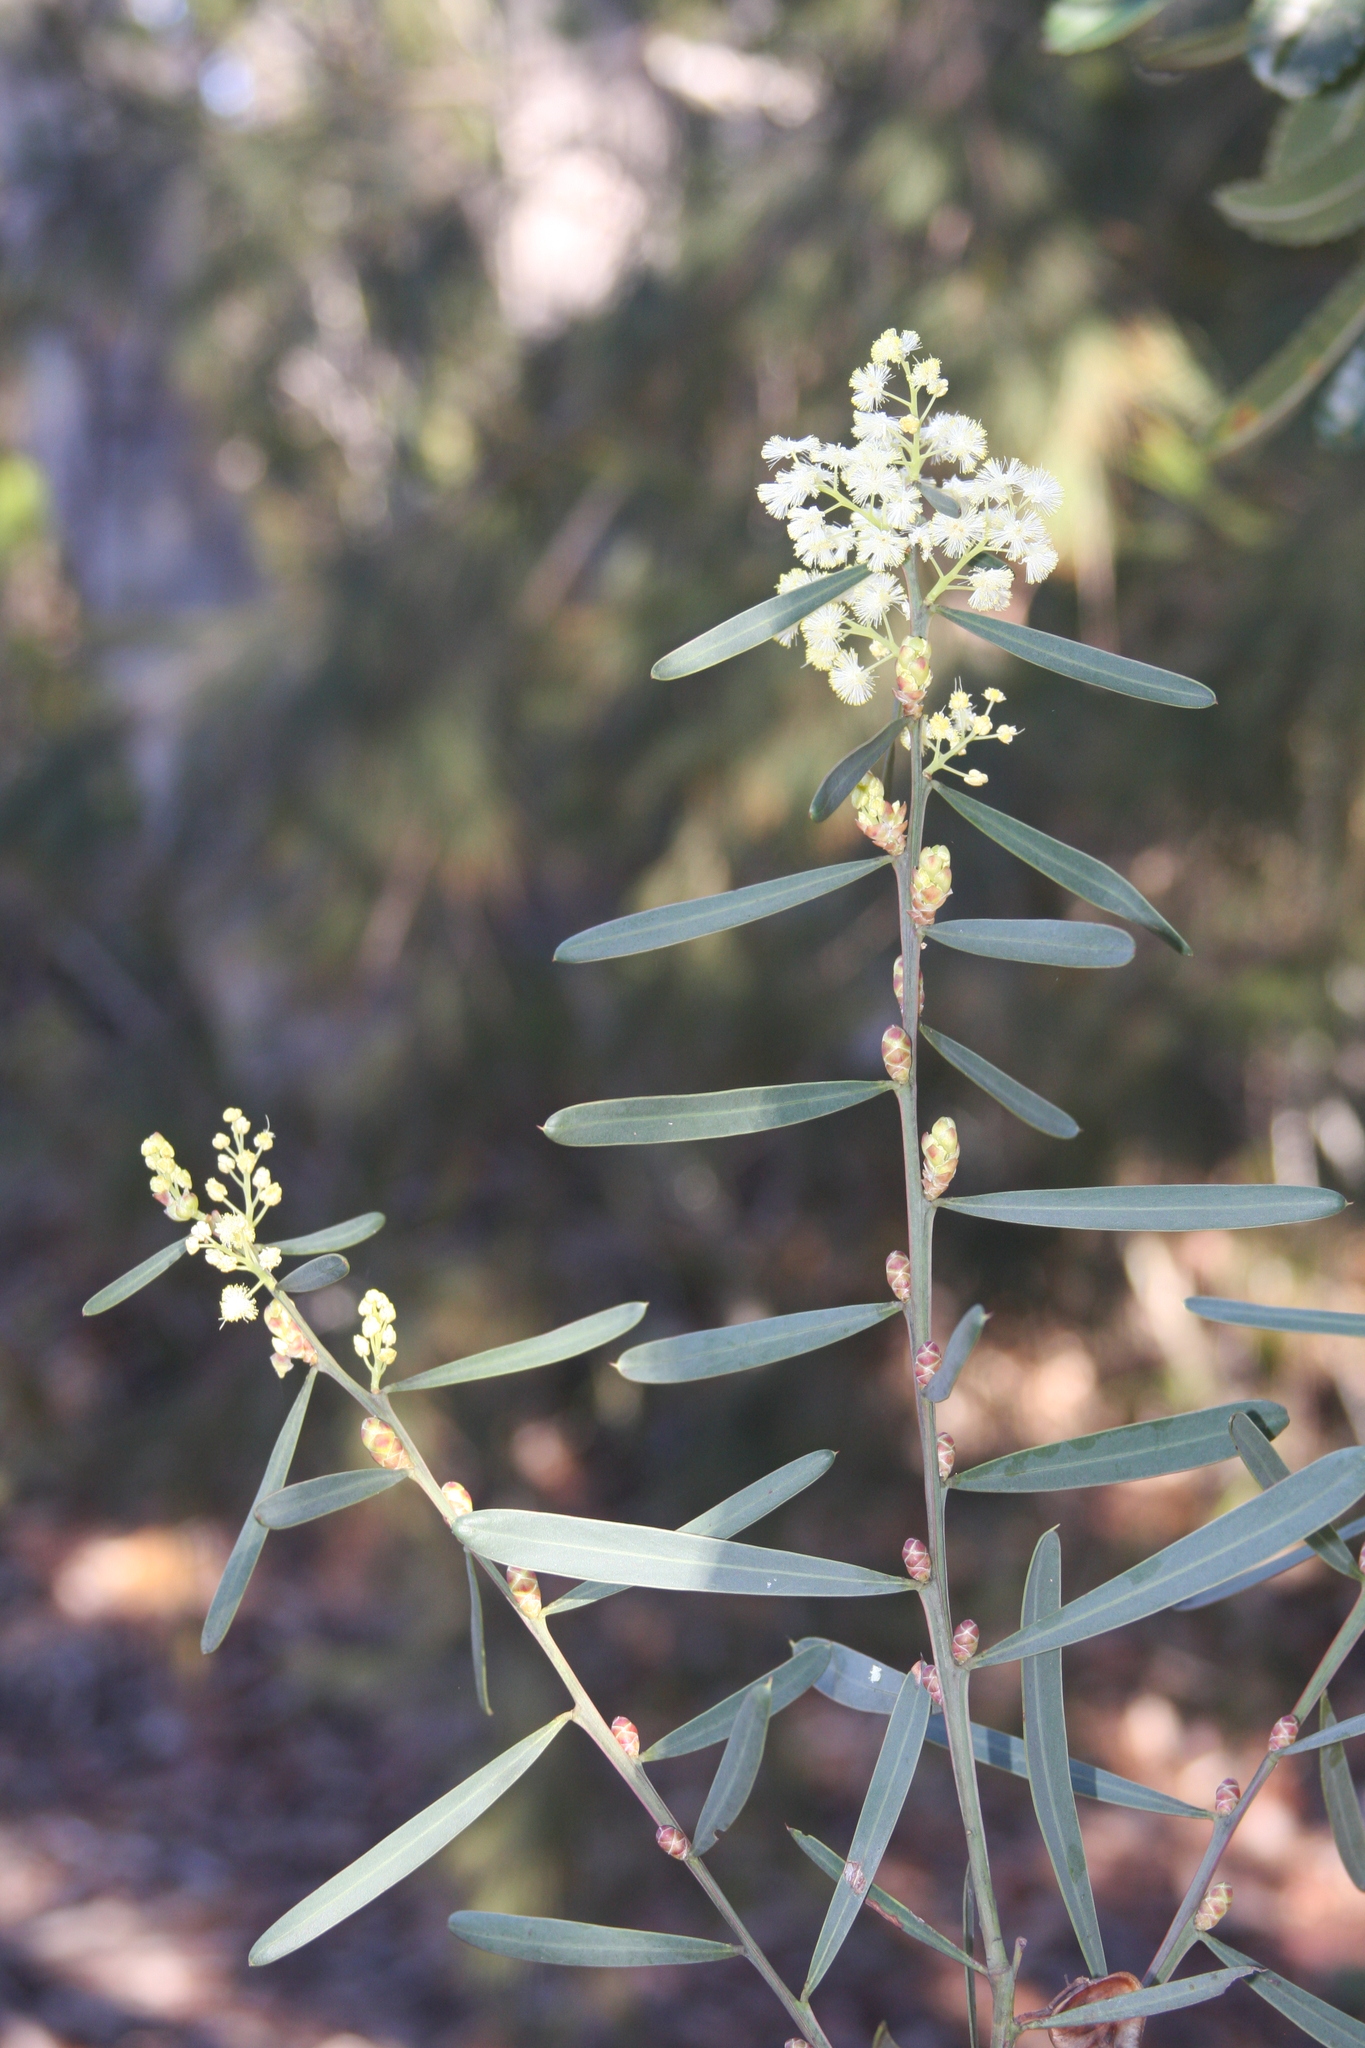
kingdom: Plantae
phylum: Tracheophyta
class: Magnoliopsida
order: Fabales
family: Fabaceae
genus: Acacia
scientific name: Acacia suaveolens
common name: Sweet acacia
